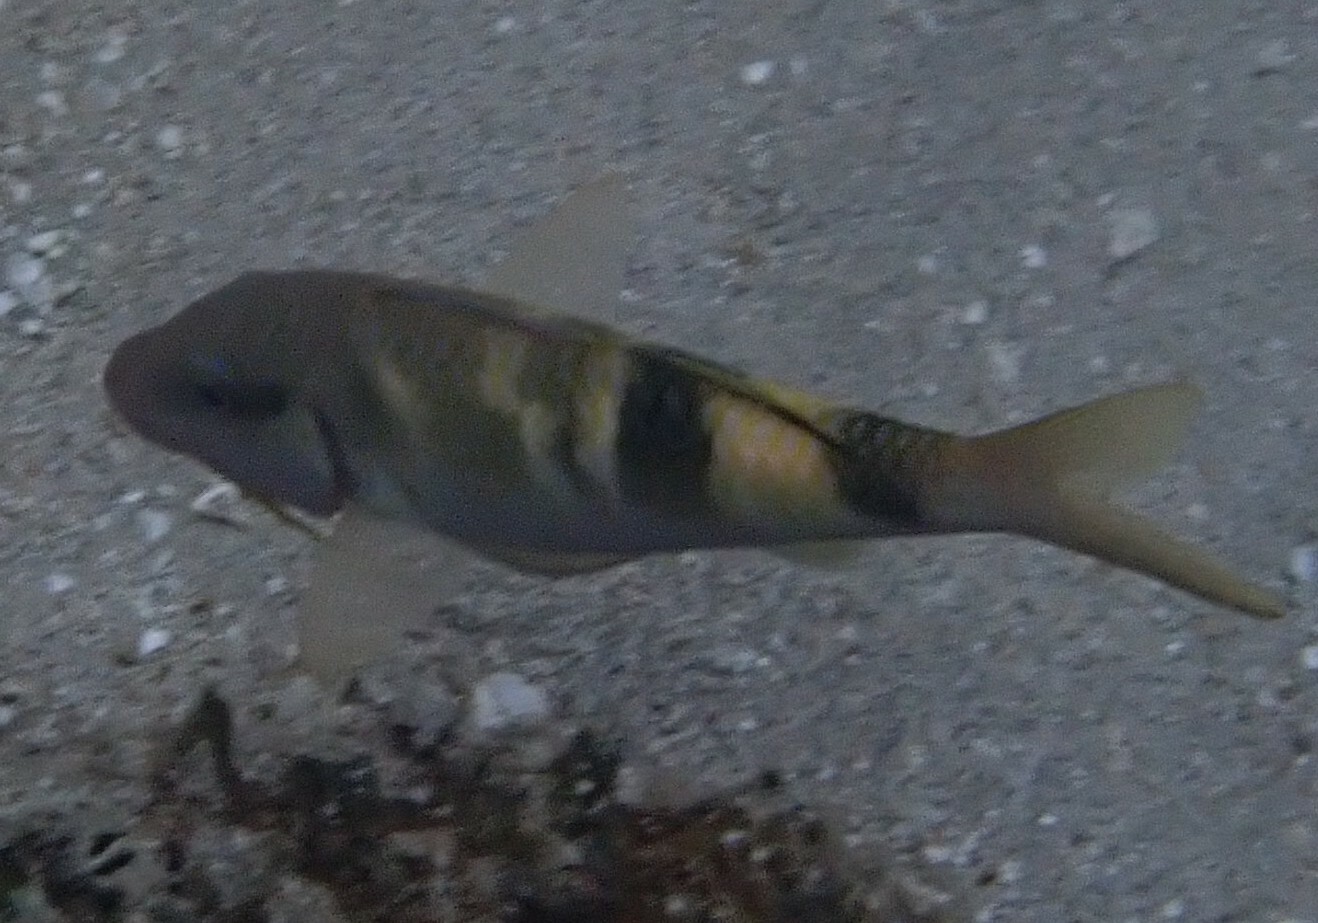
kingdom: Animalia
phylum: Chordata
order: Perciformes
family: Mullidae
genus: Parupeneus
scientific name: Parupeneus multifasciatus
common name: Manybar goatfish
